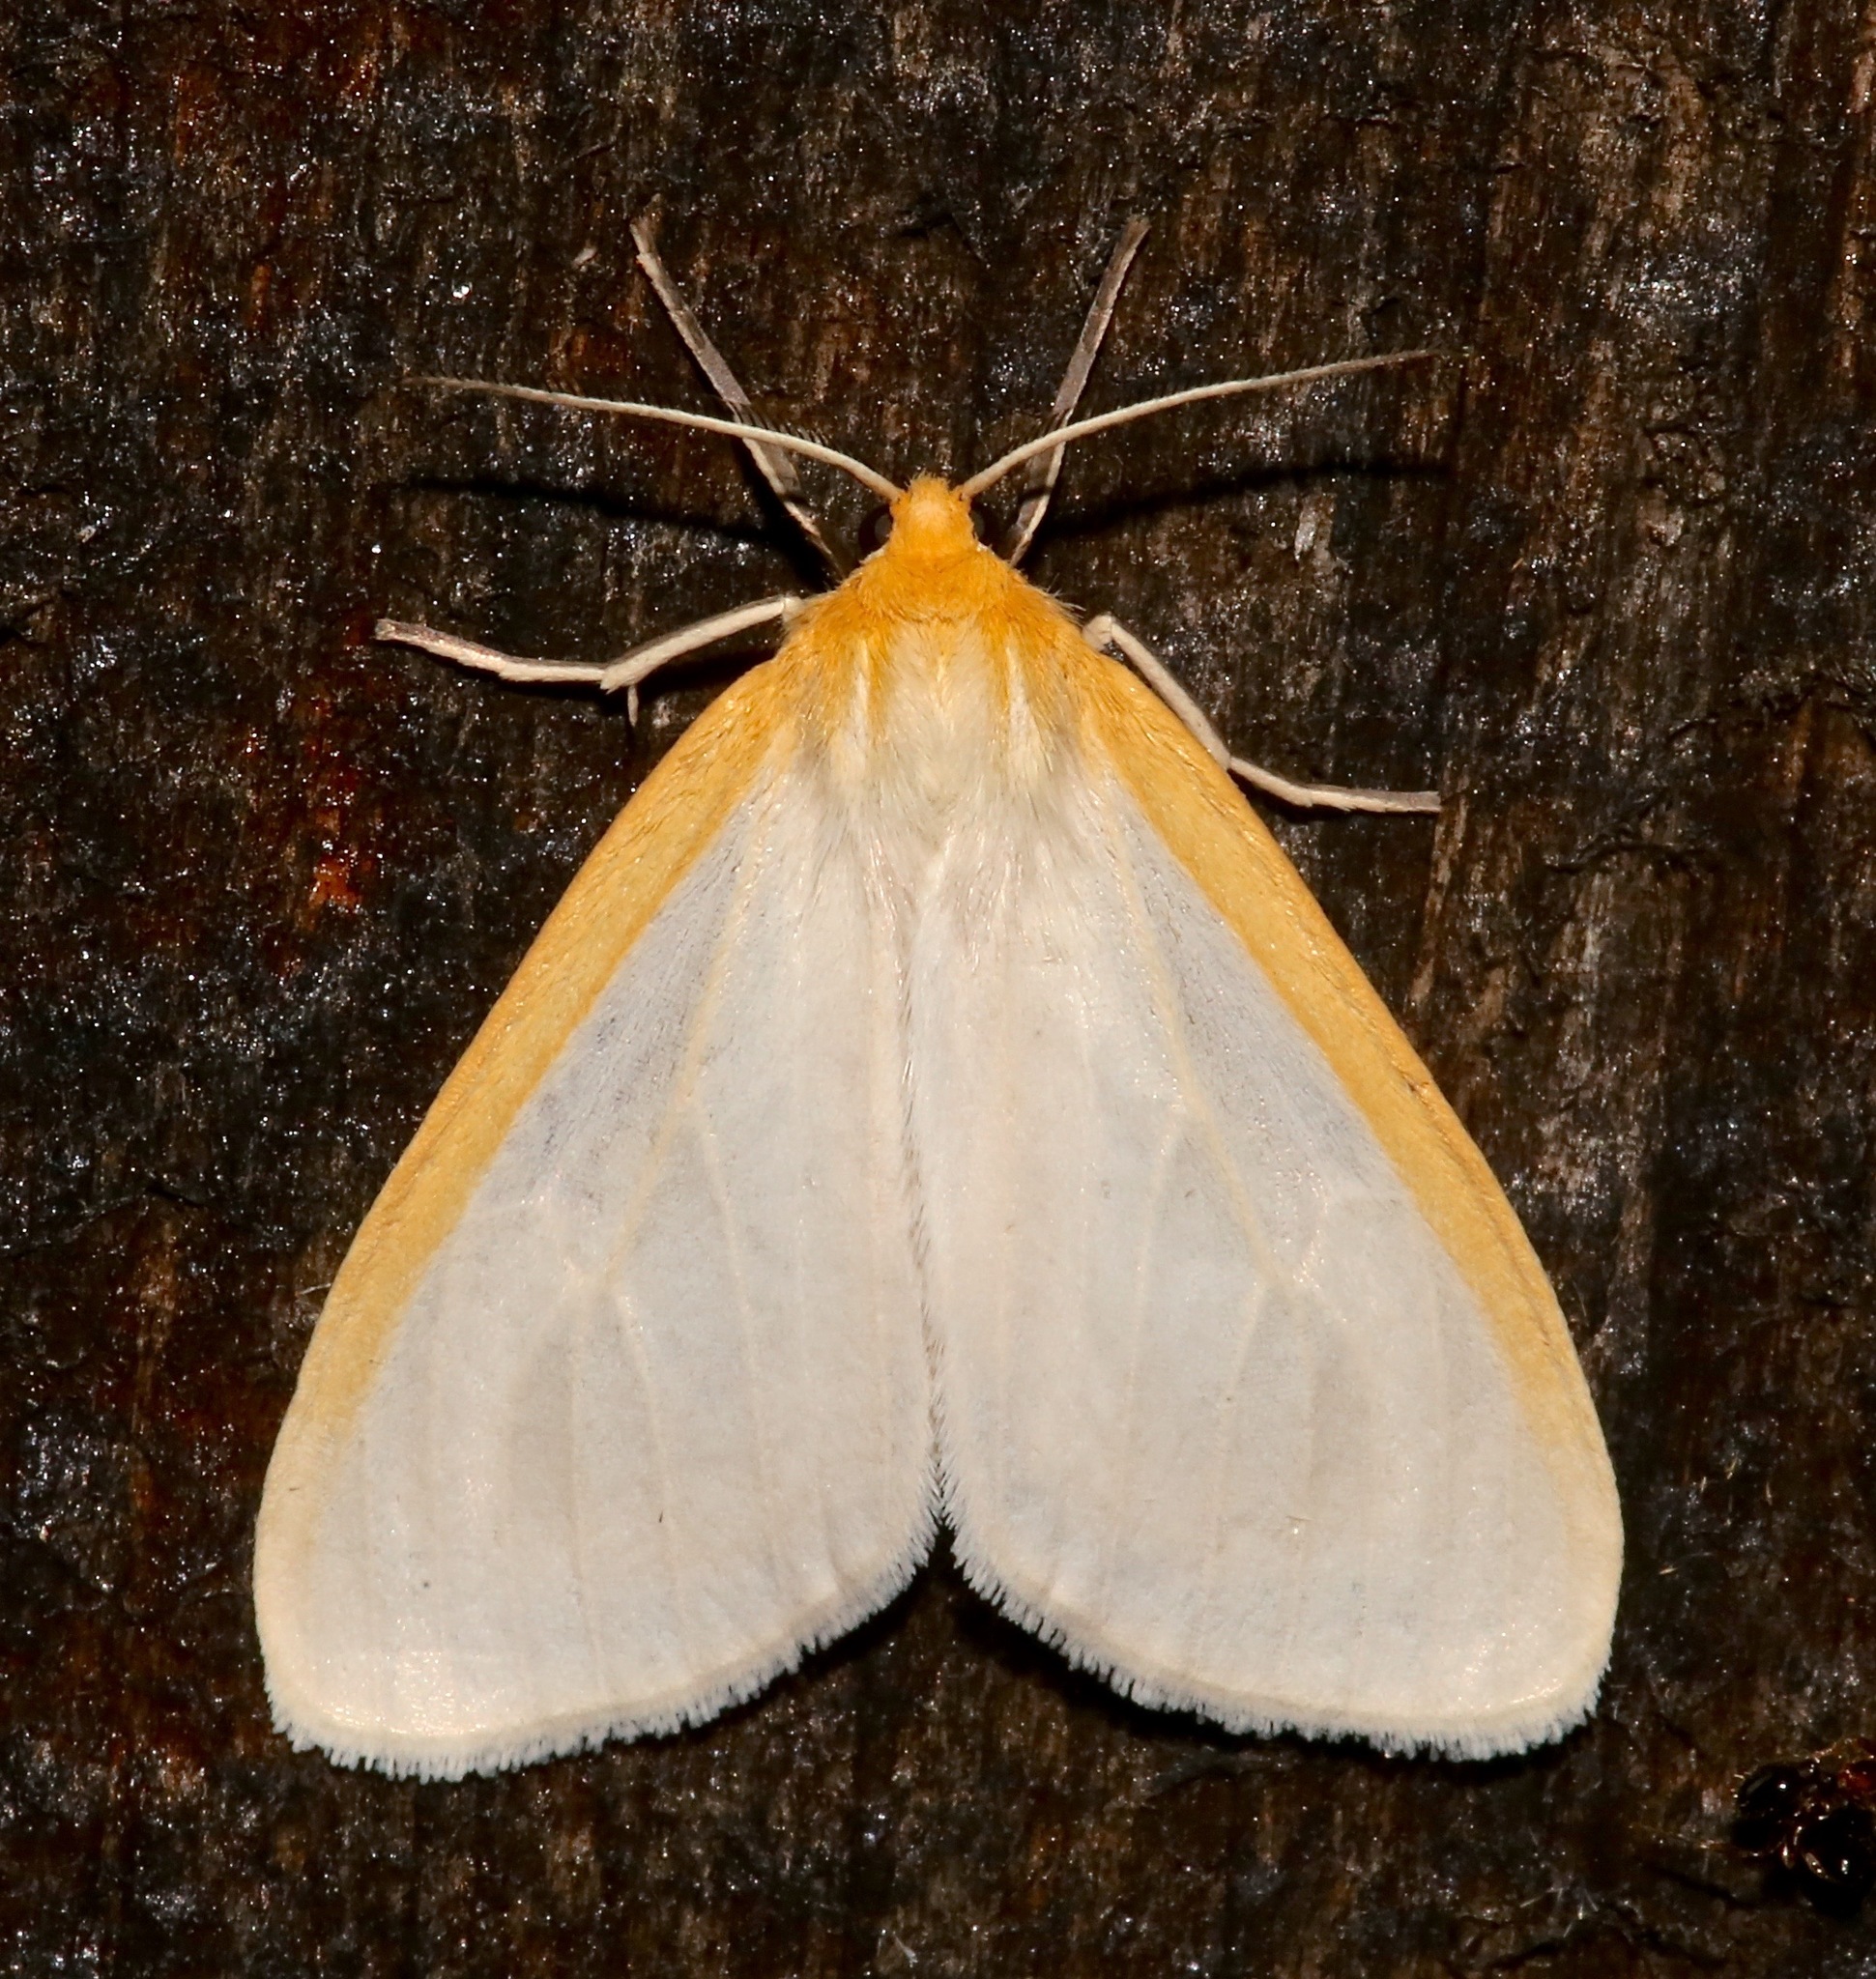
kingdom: Animalia
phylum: Arthropoda
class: Insecta
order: Lepidoptera
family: Erebidae
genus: Cycnia
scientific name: Cycnia tenera
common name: Delicate cycnia moth
